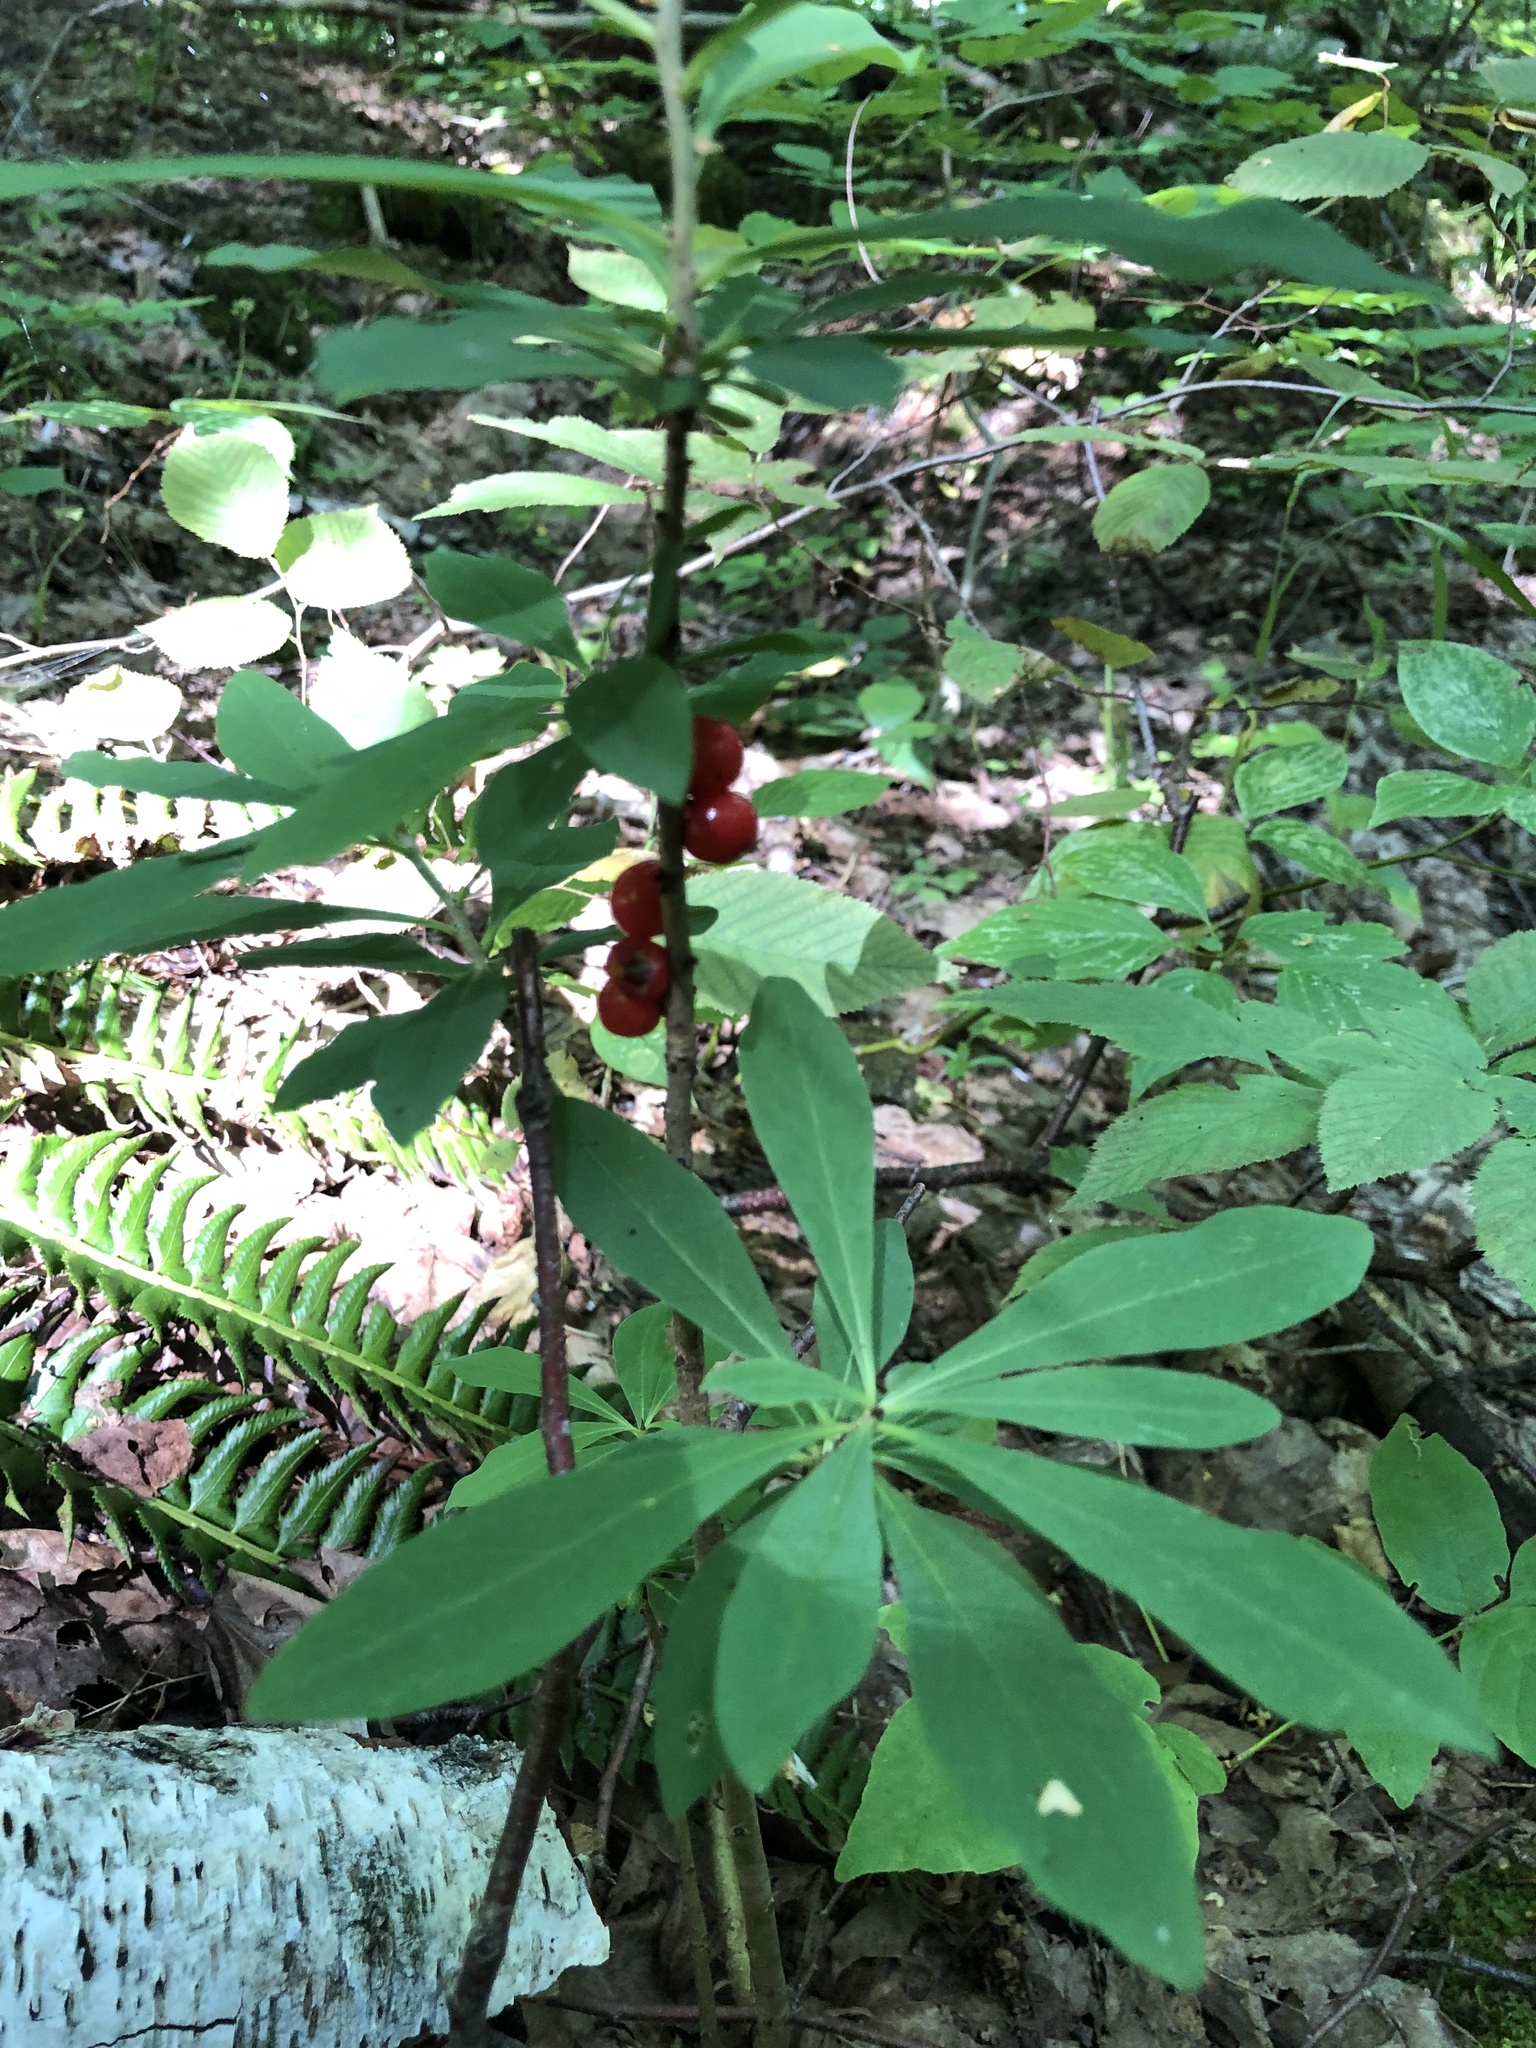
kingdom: Plantae
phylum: Tracheophyta
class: Magnoliopsida
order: Malvales
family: Thymelaeaceae
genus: Daphne
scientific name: Daphne mezereum
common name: Mezereon
